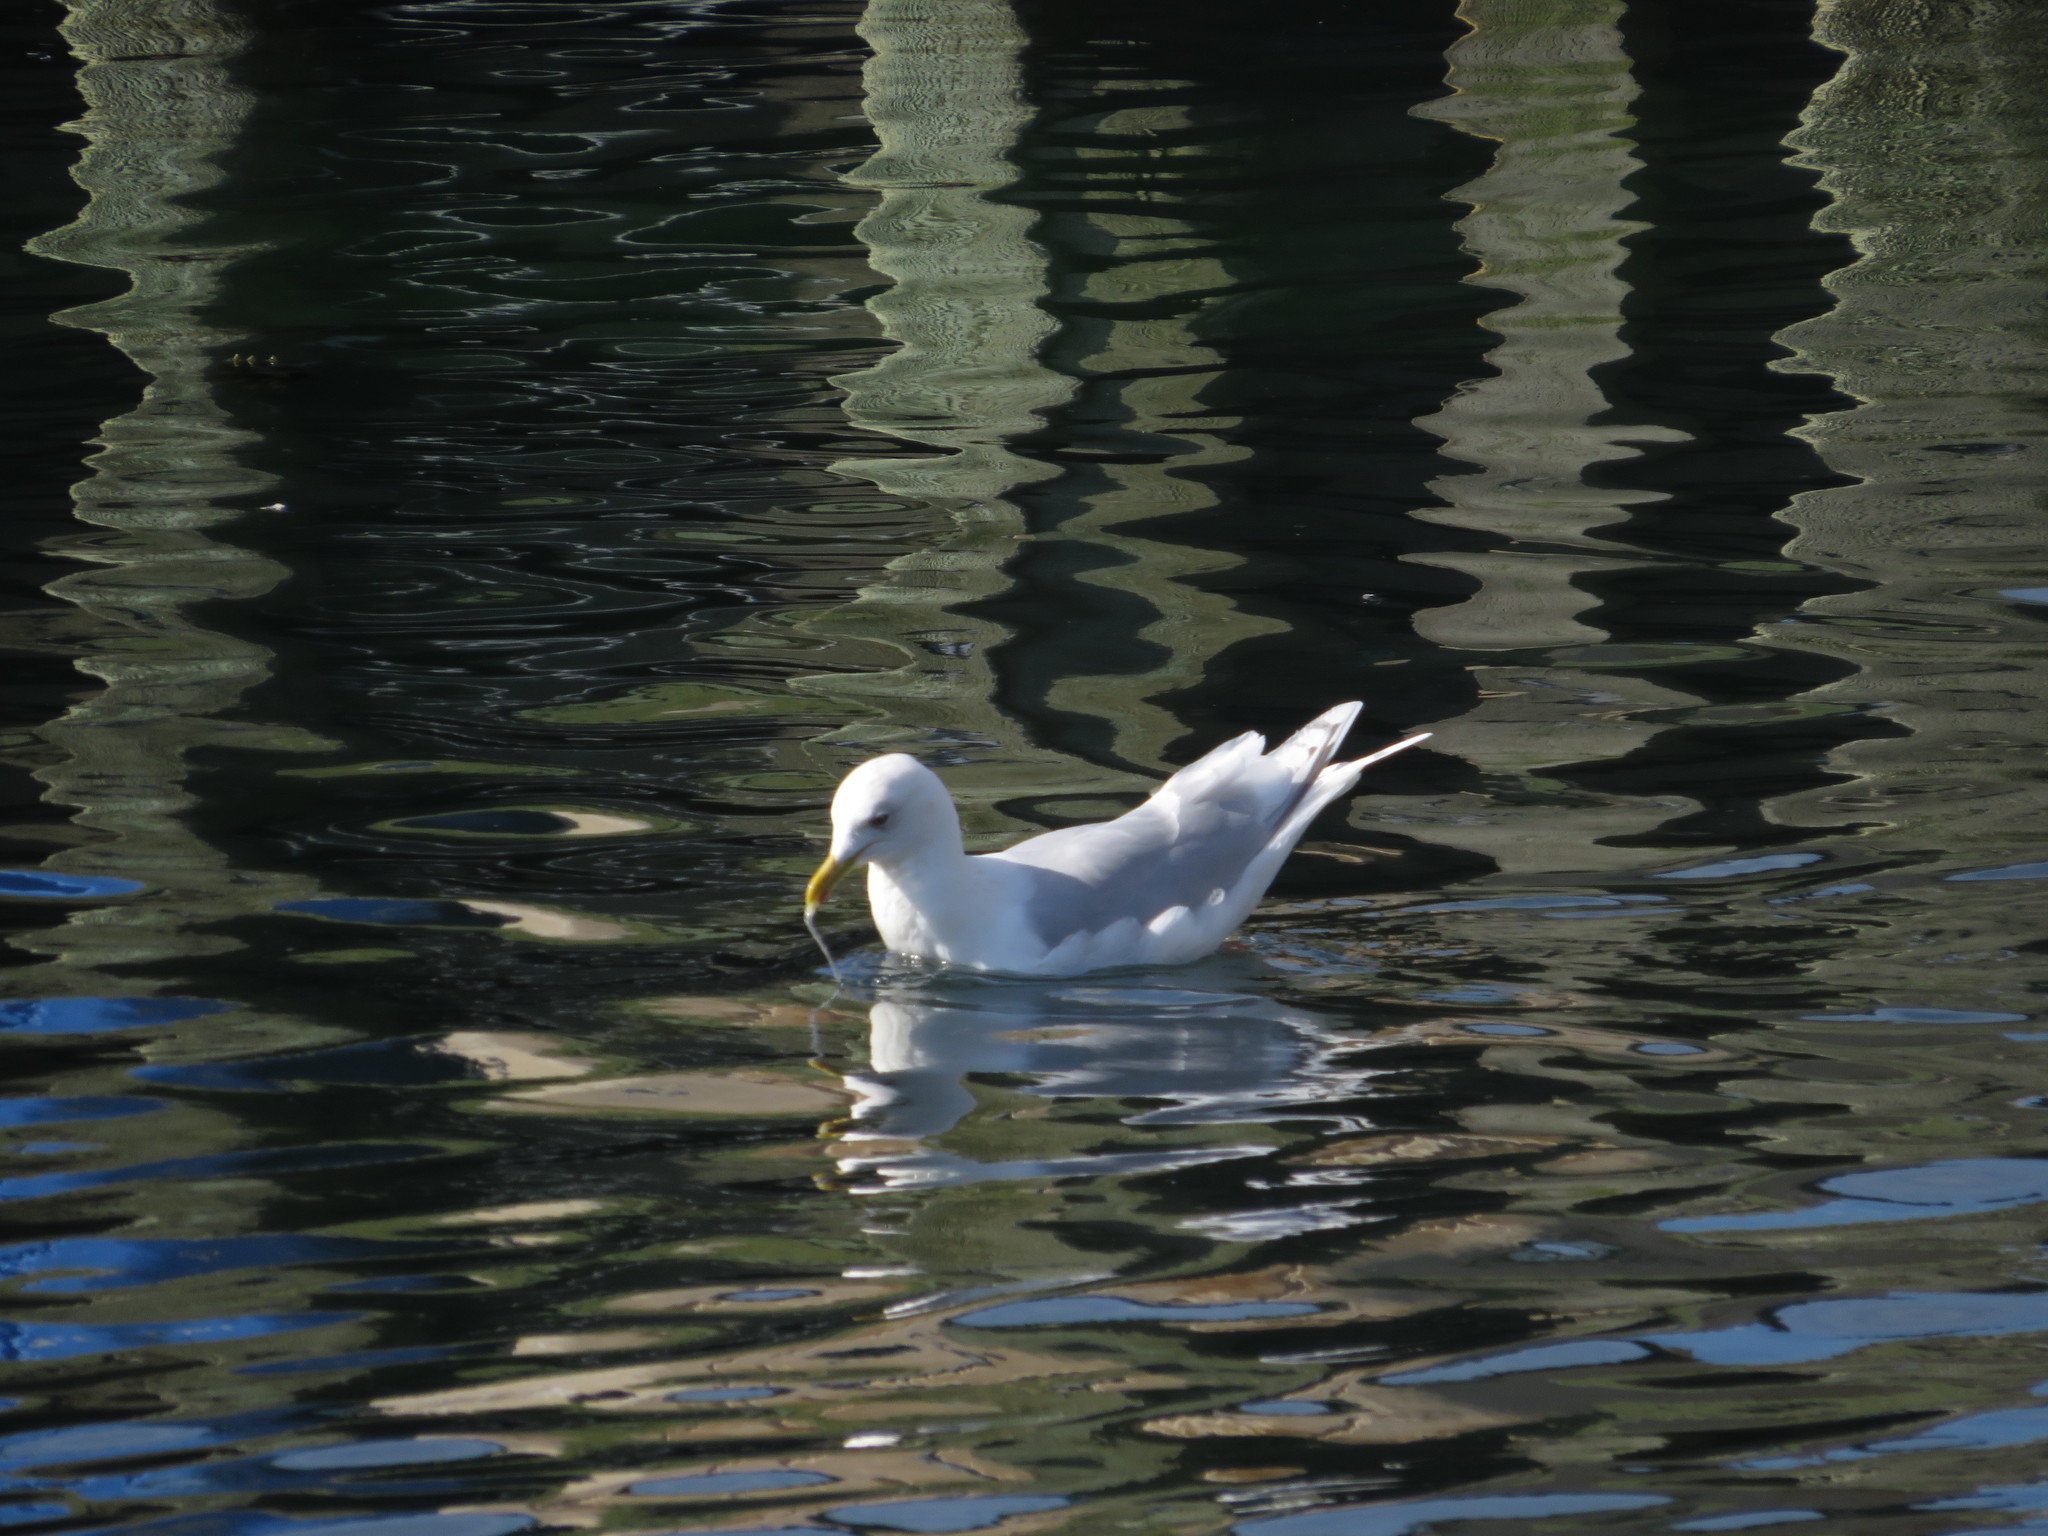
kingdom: Animalia
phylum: Chordata
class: Aves
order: Charadriiformes
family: Laridae
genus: Larus
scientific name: Larus glaucoides
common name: Iceland gull
